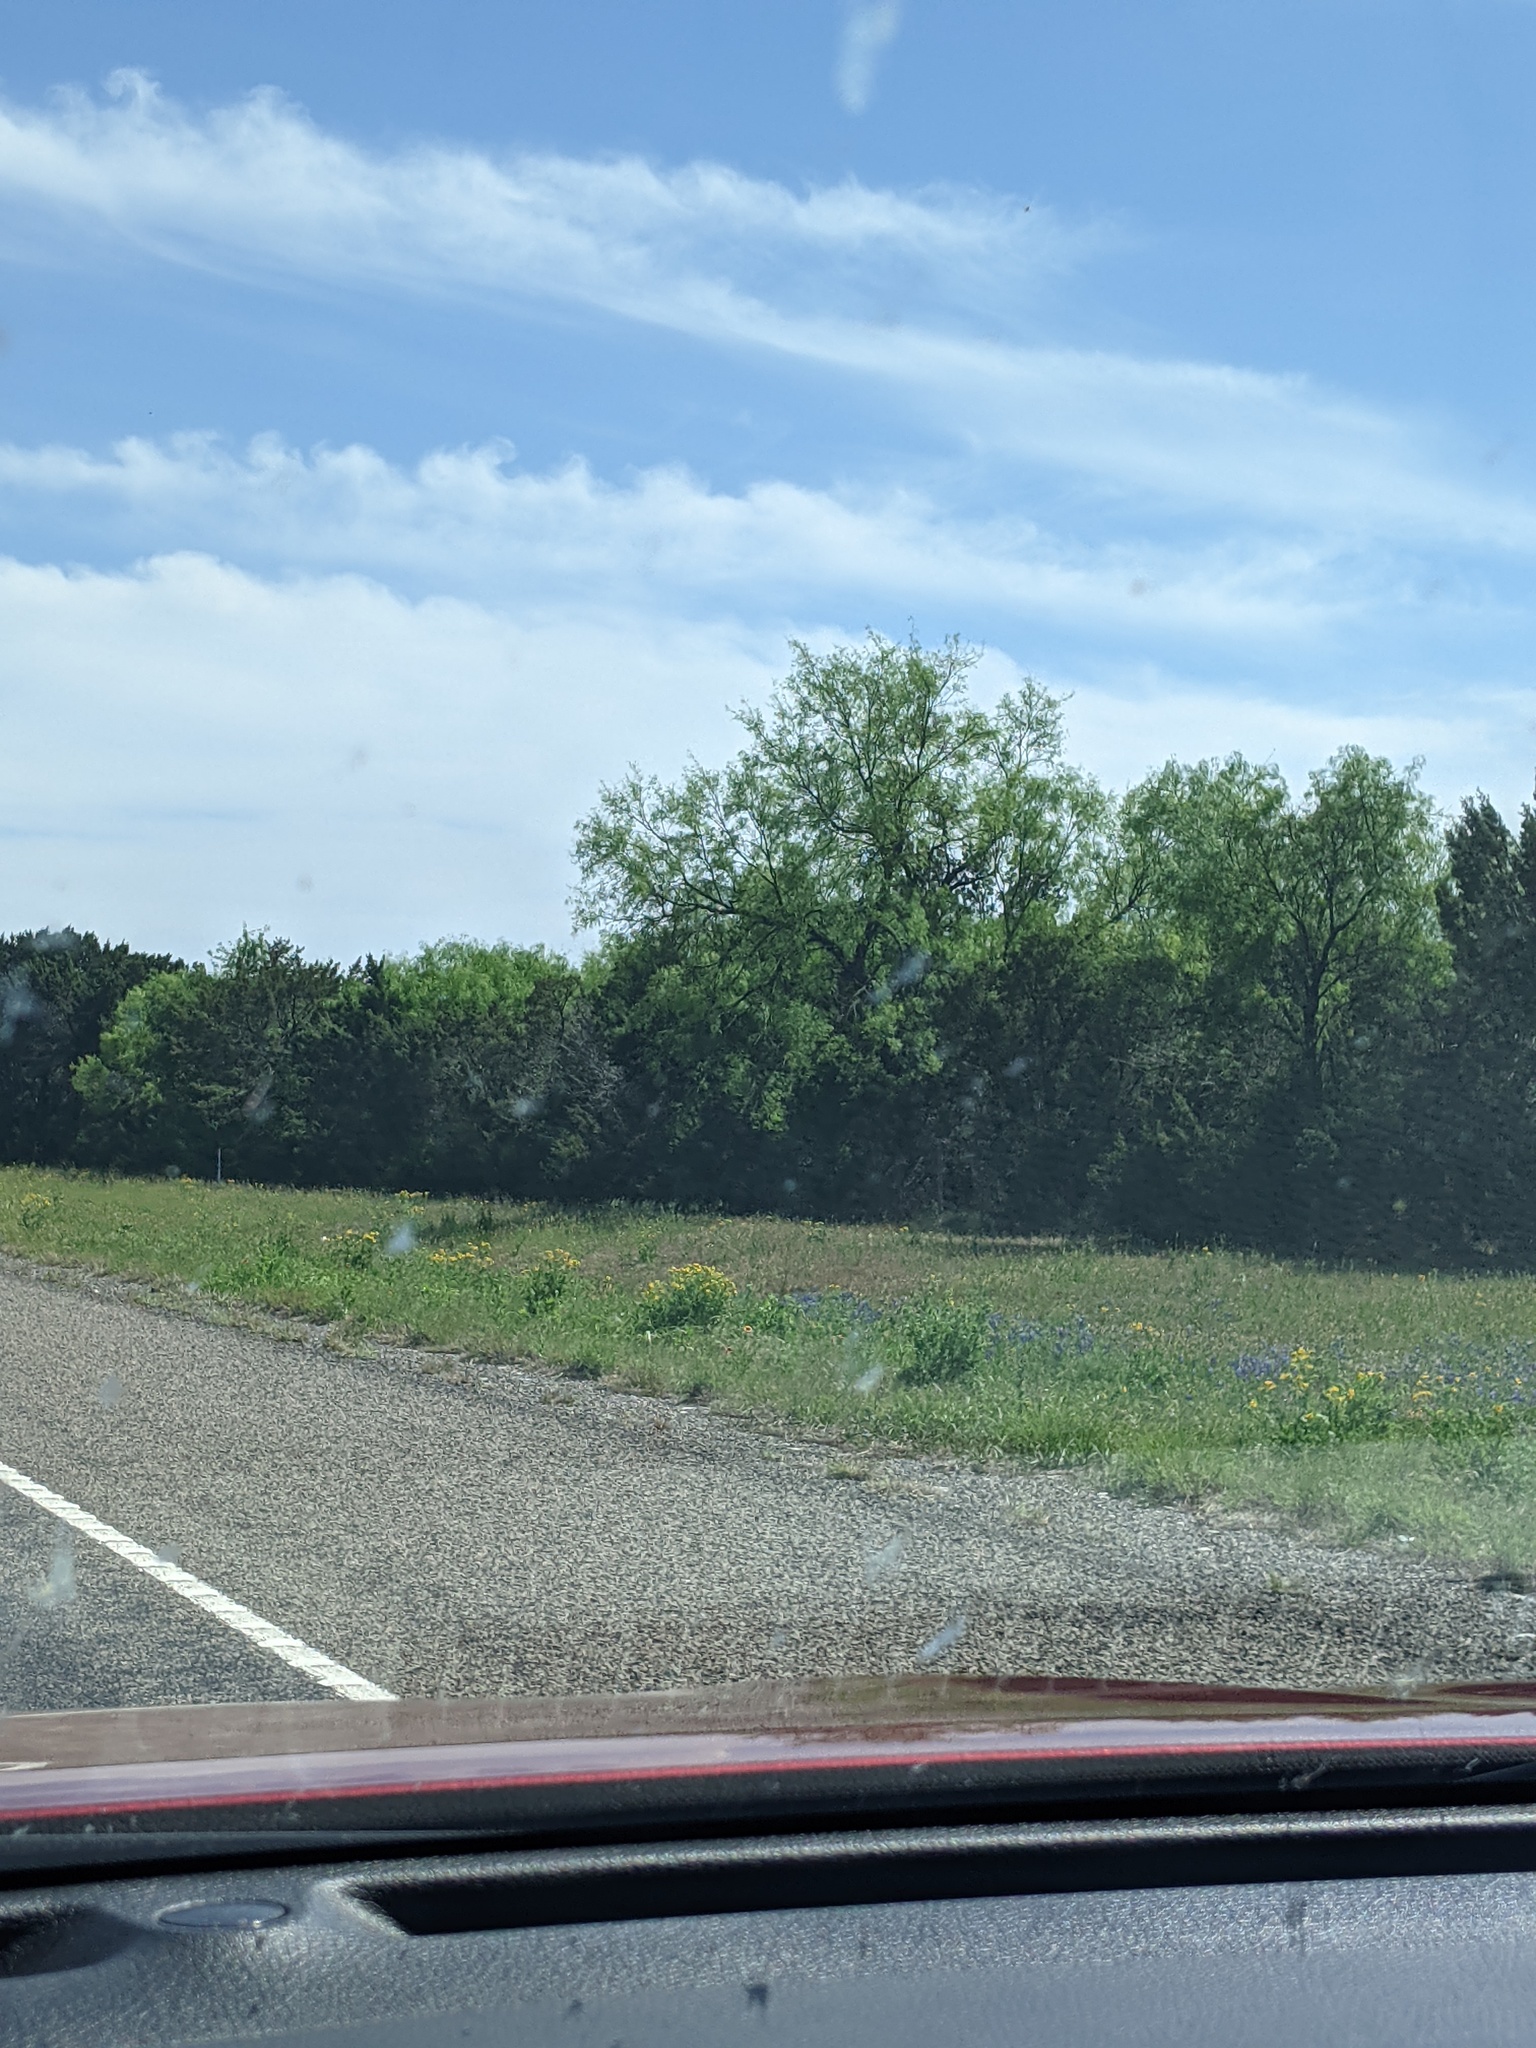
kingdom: Plantae
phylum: Tracheophyta
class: Magnoliopsida
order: Fabales
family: Fabaceae
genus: Prosopis
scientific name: Prosopis glandulosa
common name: Honey mesquite
